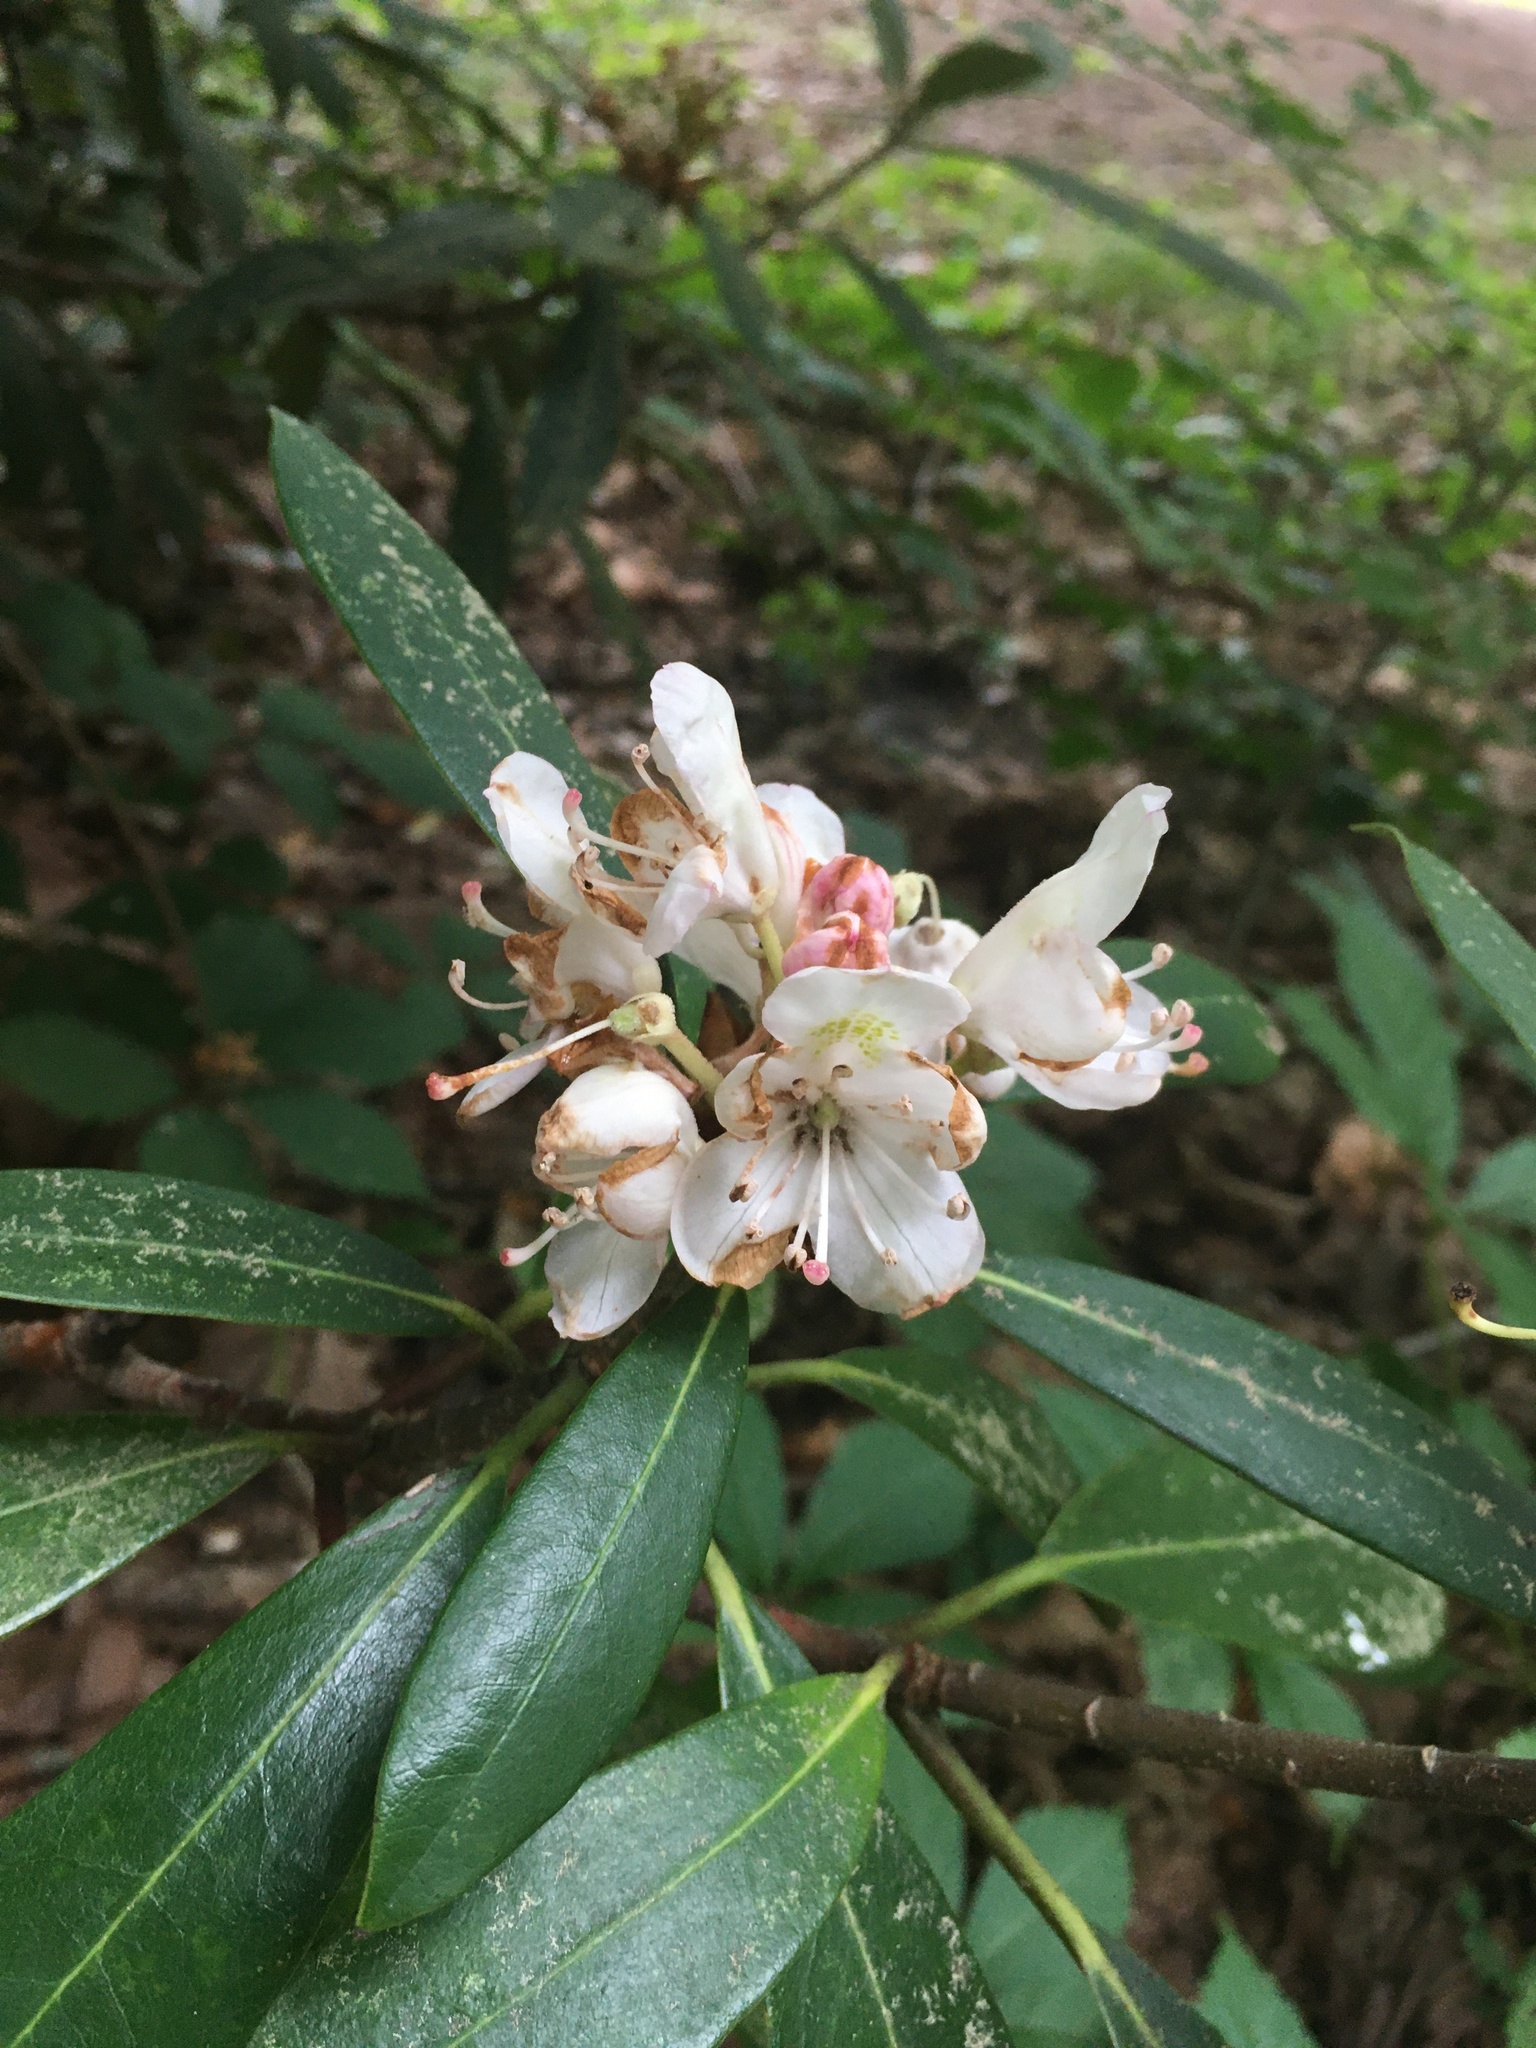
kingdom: Plantae
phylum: Tracheophyta
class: Magnoliopsida
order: Ericales
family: Ericaceae
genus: Rhododendron
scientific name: Rhododendron maximum
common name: Great rhododendron
